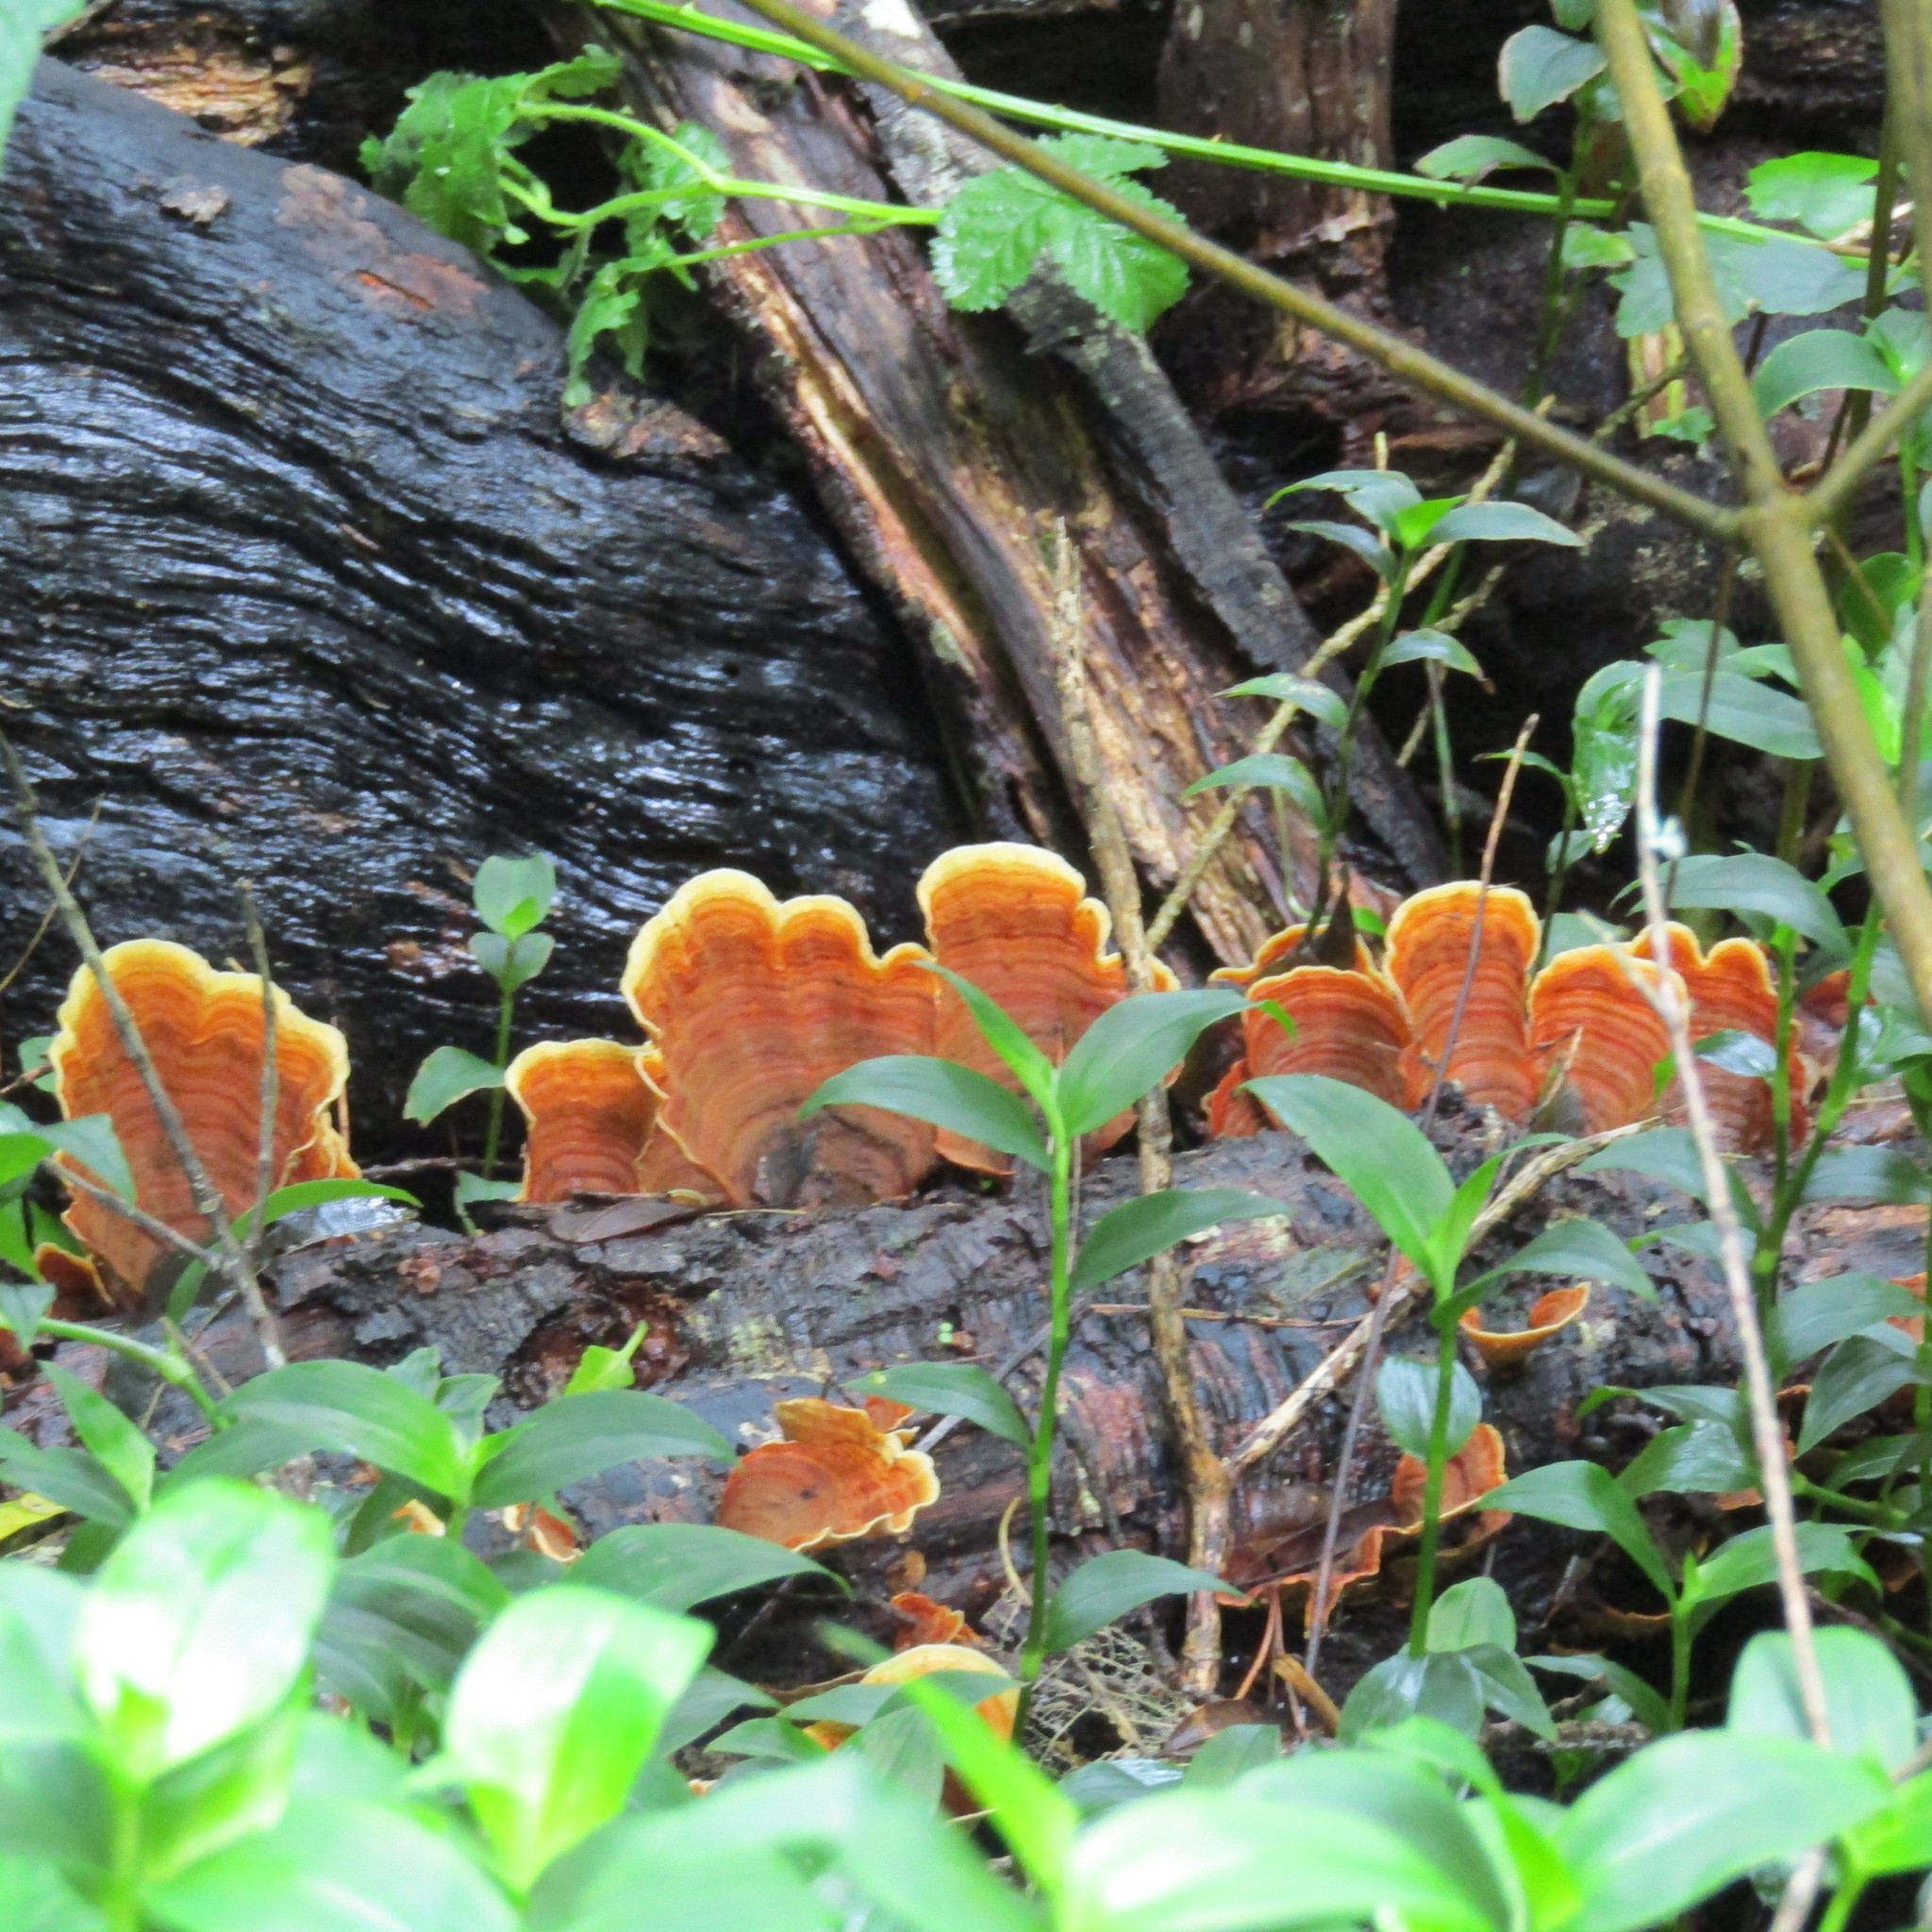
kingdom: Fungi
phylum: Basidiomycota
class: Agaricomycetes
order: Russulales
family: Stereaceae
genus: Stereum
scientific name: Stereum versicolor
